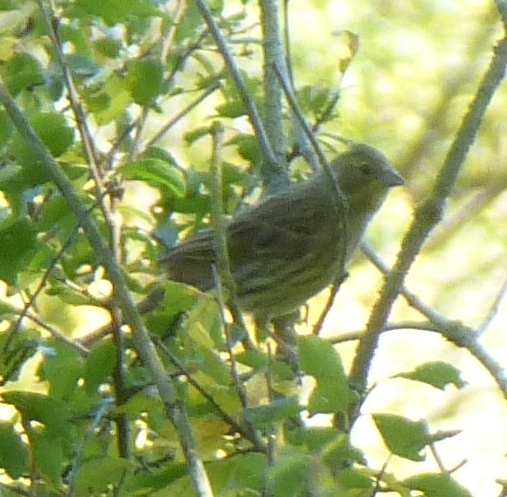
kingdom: Animalia
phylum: Chordata
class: Aves
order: Passeriformes
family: Emberizidae
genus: Emberiza
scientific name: Emberiza citrinella
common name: Yellowhammer
